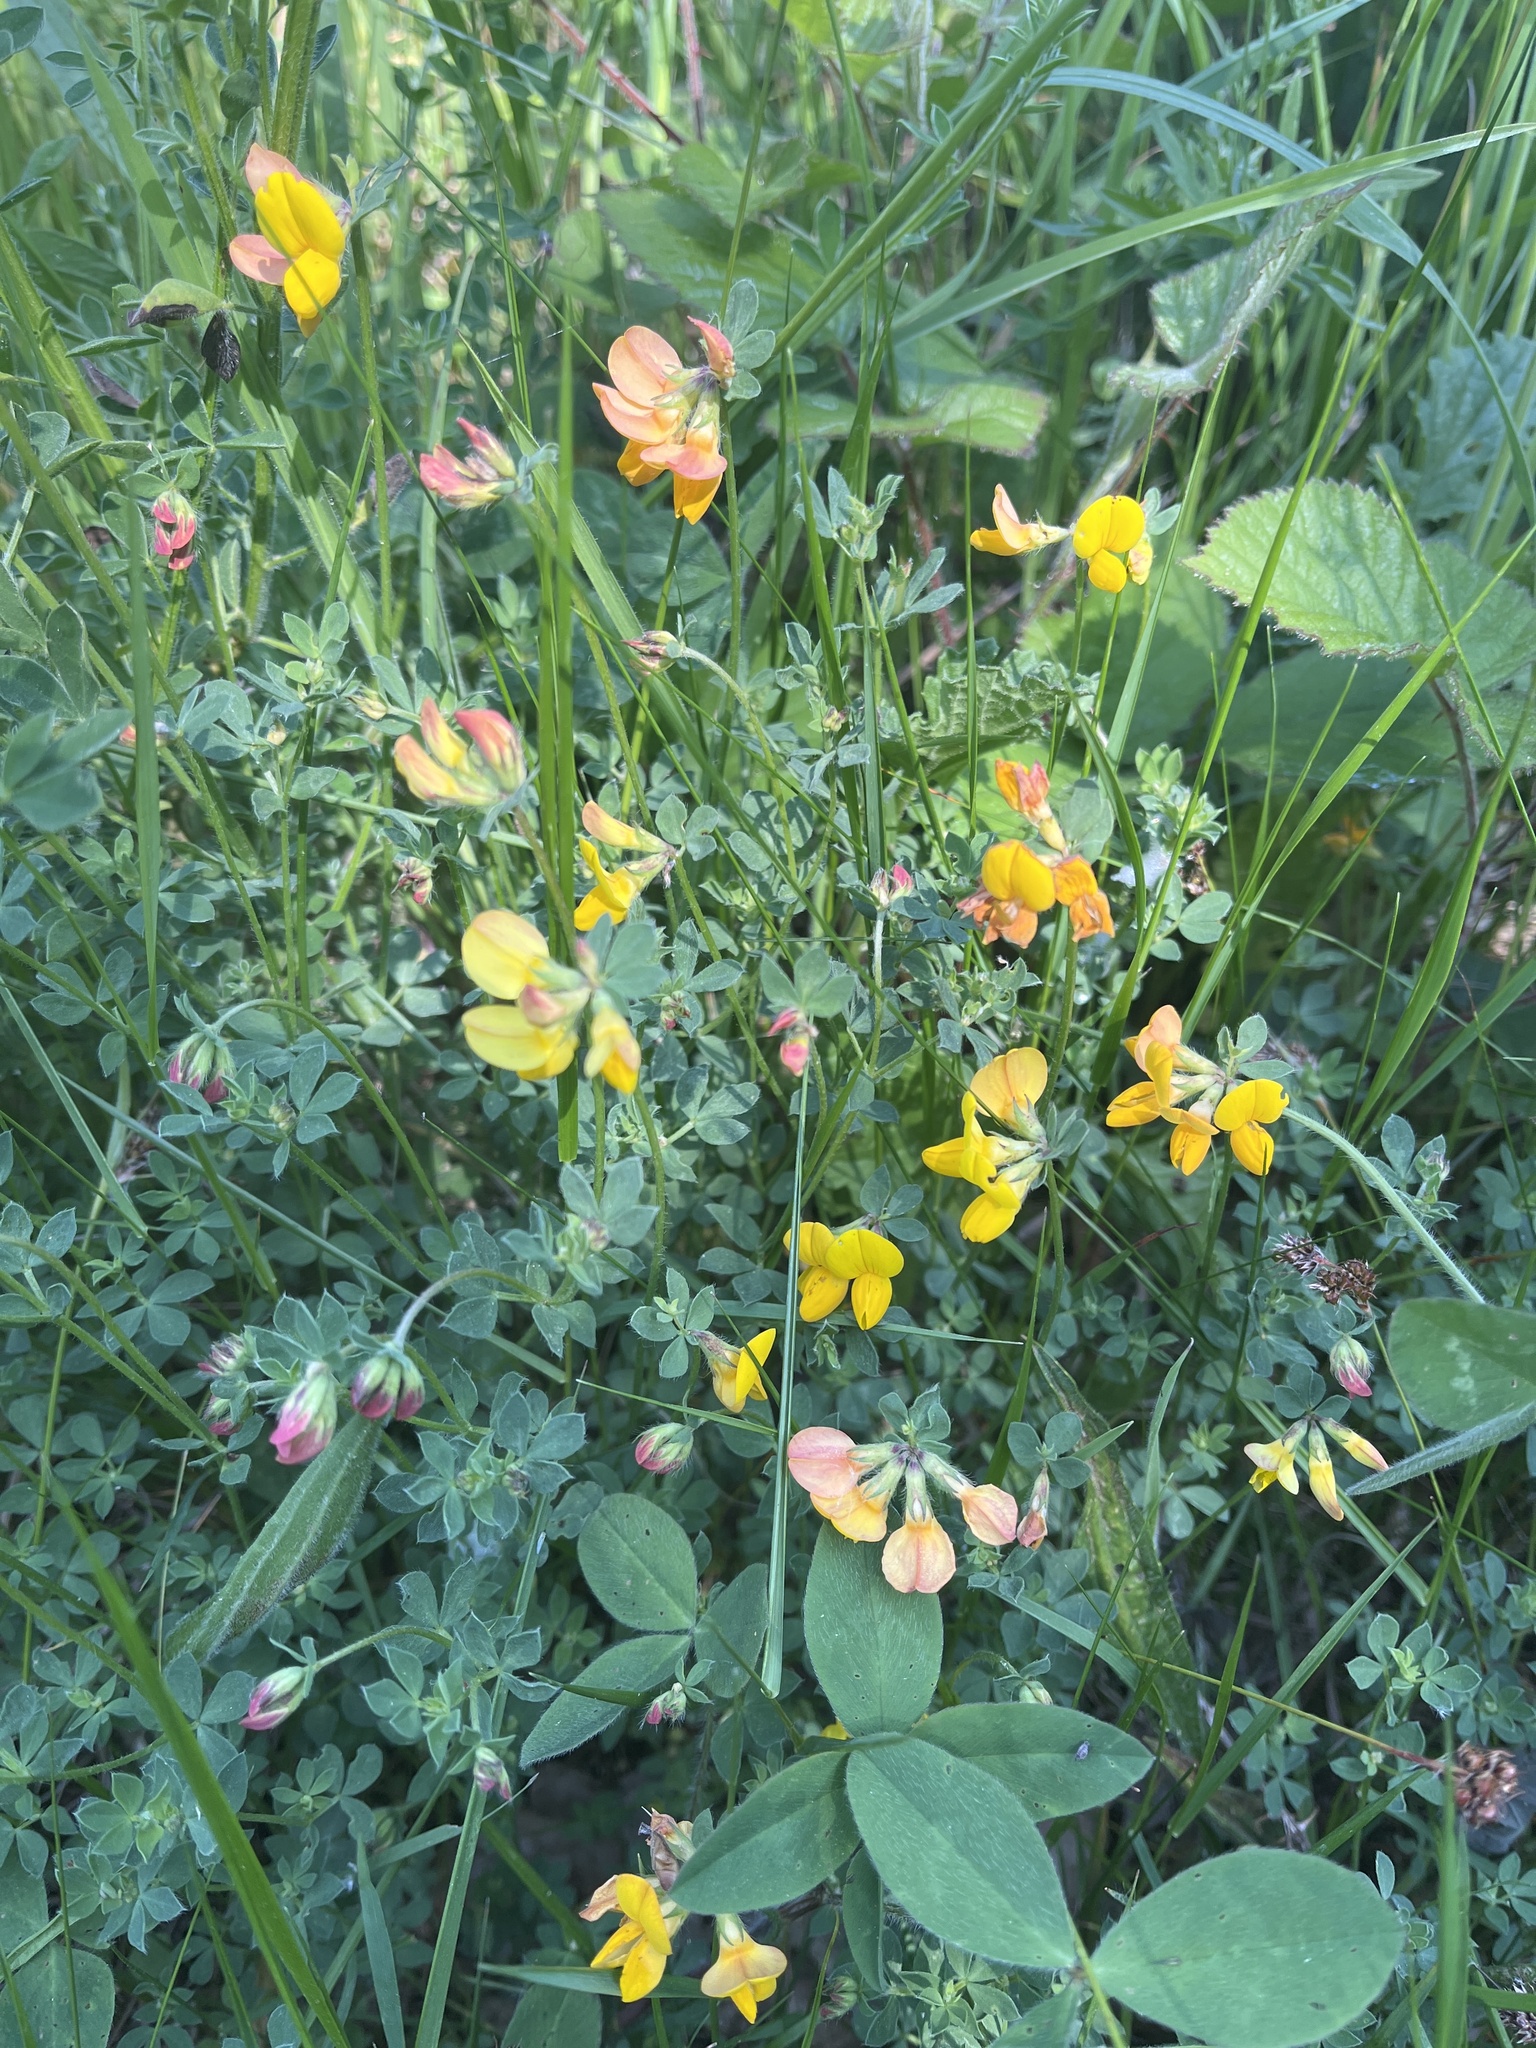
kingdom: Plantae
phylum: Tracheophyta
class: Magnoliopsida
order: Fabales
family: Fabaceae
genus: Lotus
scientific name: Lotus corniculatus
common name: Common bird's-foot-trefoil
